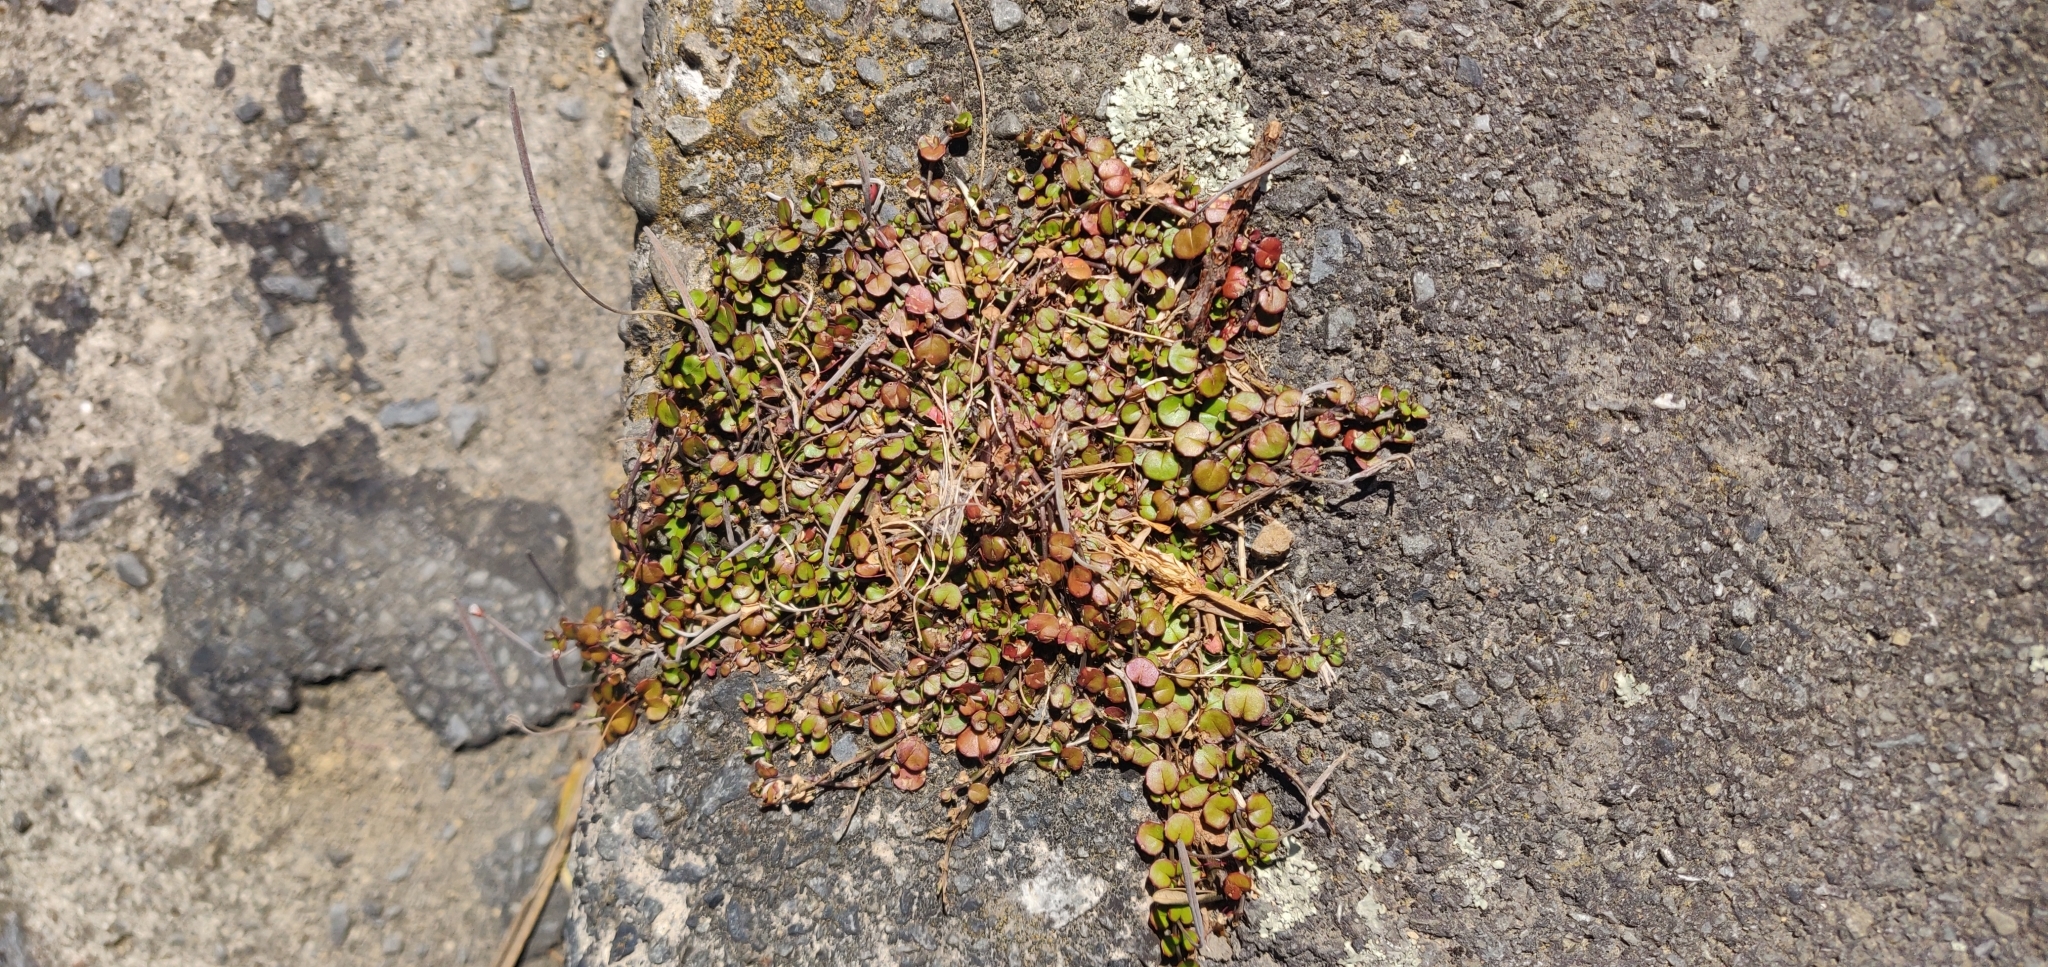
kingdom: Plantae
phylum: Tracheophyta
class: Magnoliopsida
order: Myrtales
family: Onagraceae
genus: Epilobium
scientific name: Epilobium nummularifolium
